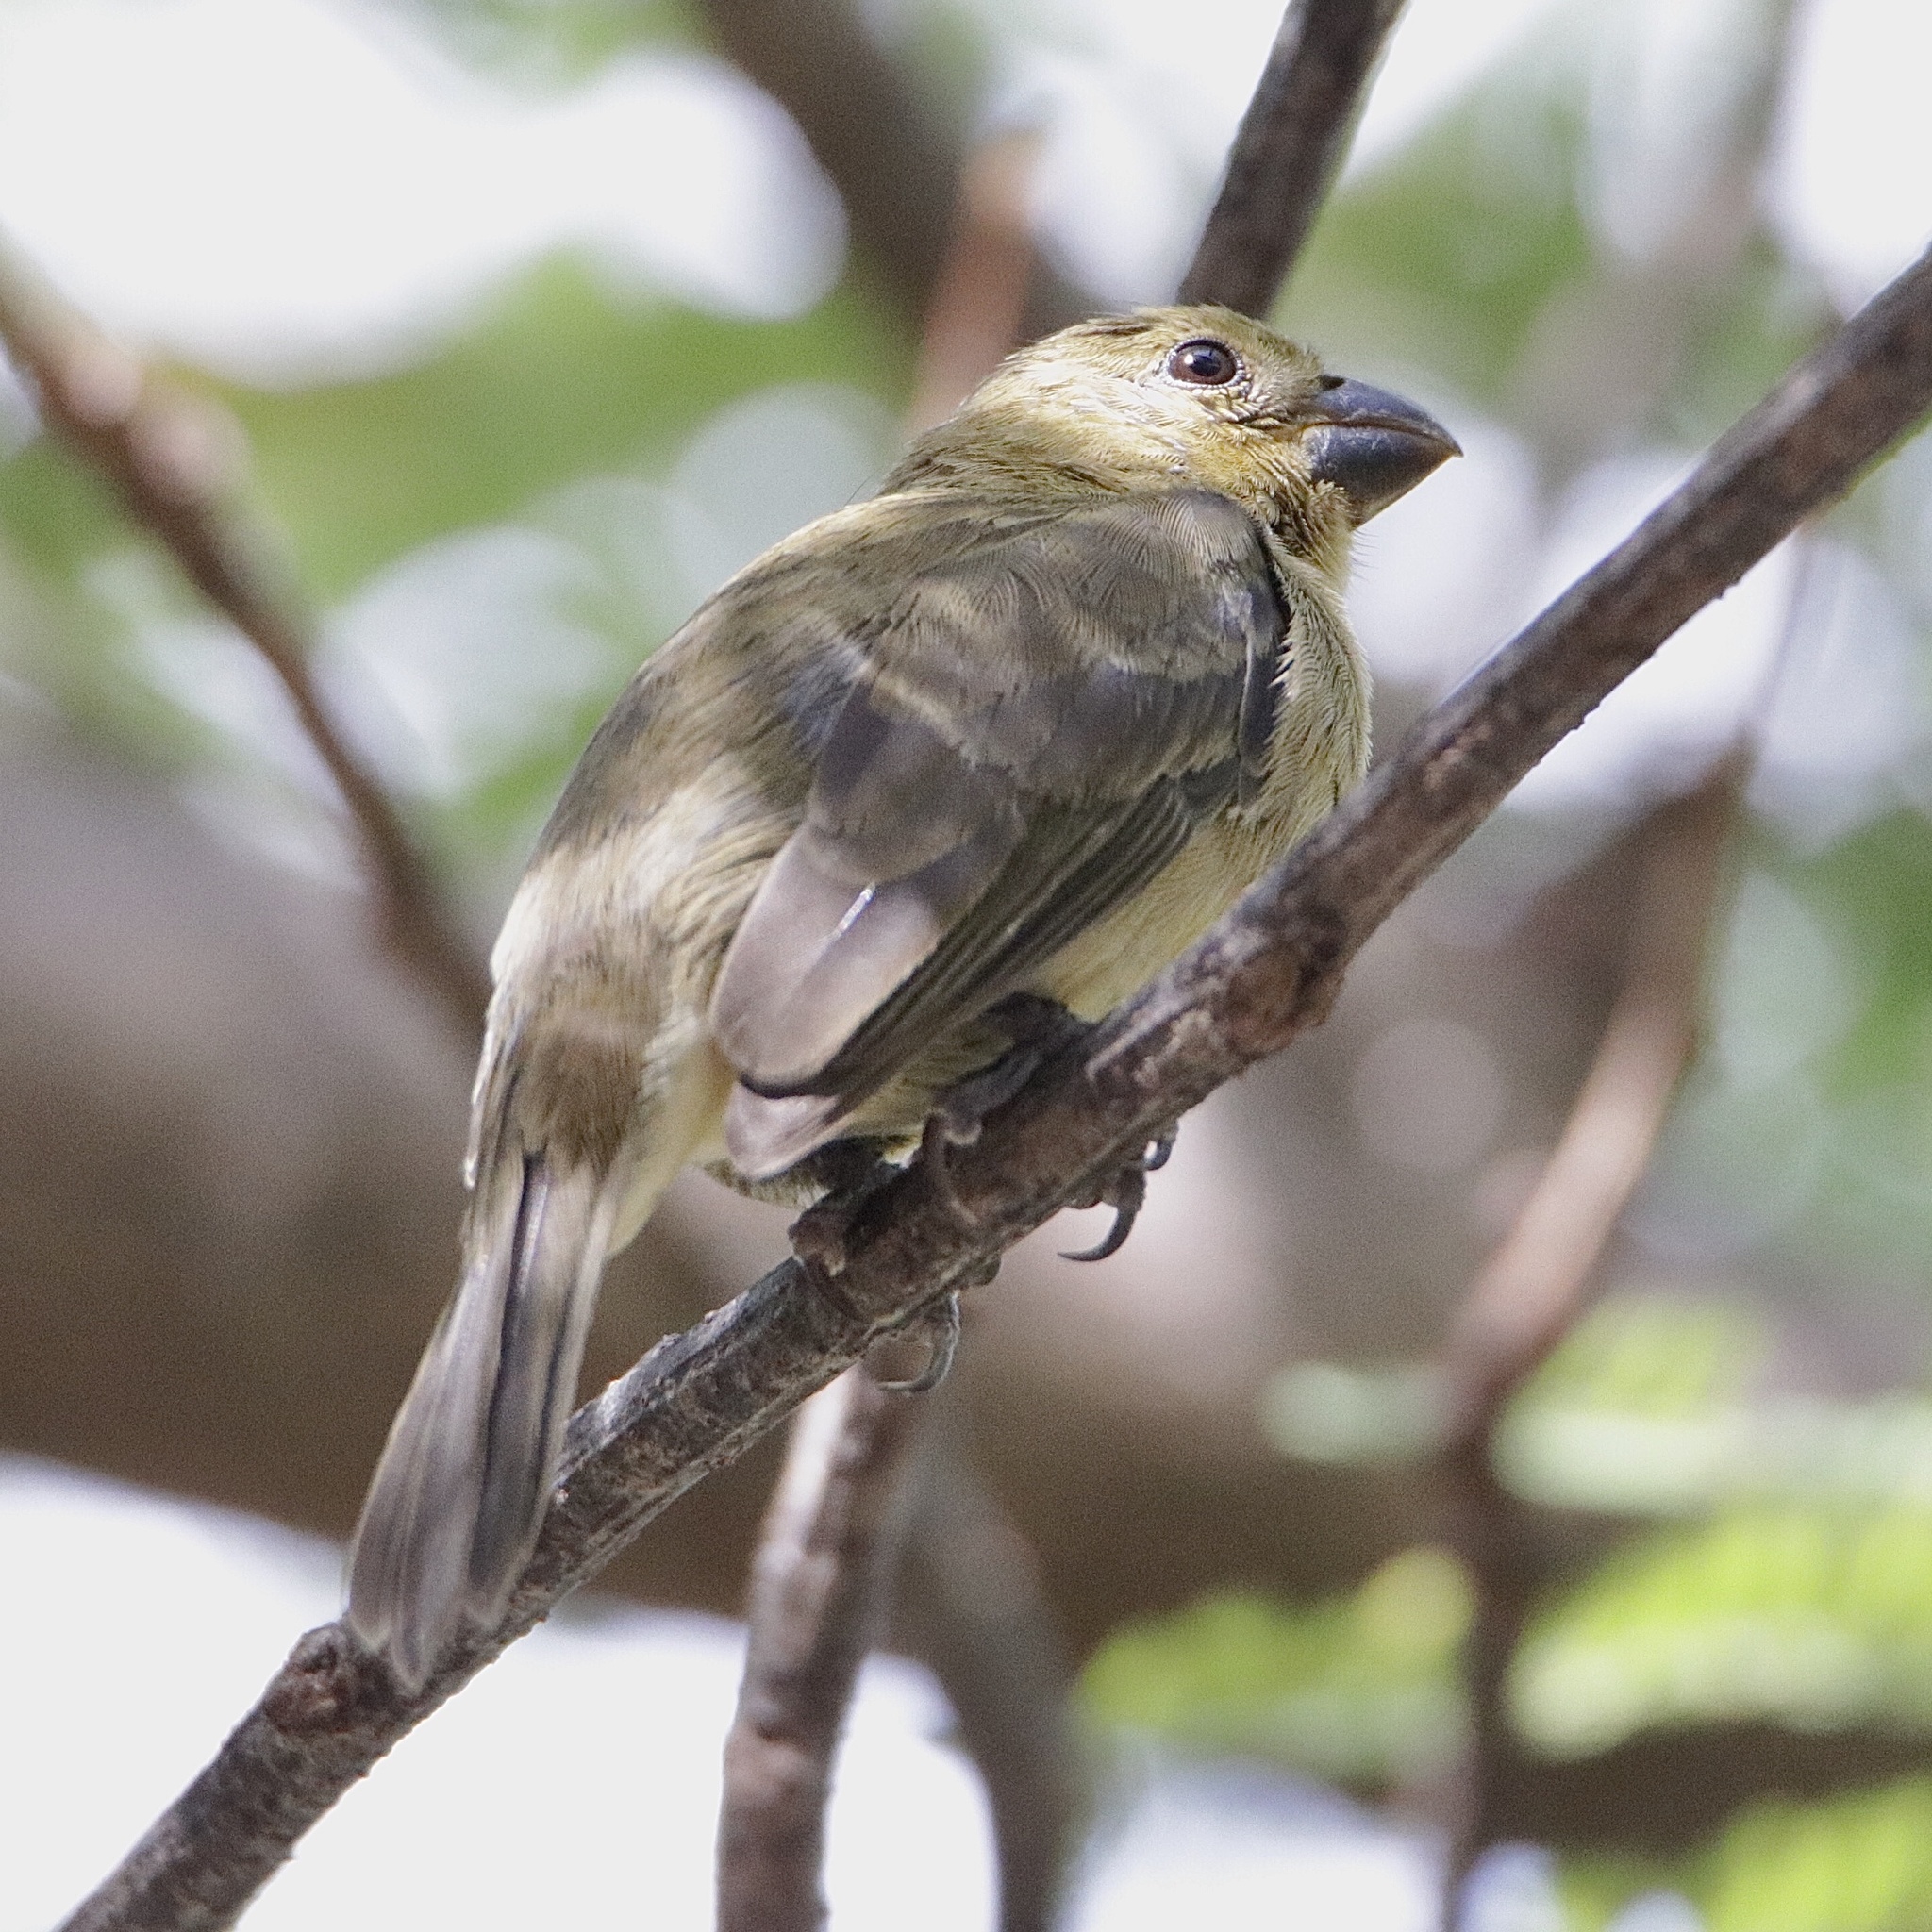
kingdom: Animalia
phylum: Chordata
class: Aves
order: Passeriformes
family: Thraupidae
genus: Sporophila
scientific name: Sporophila nigricollis
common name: Yellow-bellied seedeater
